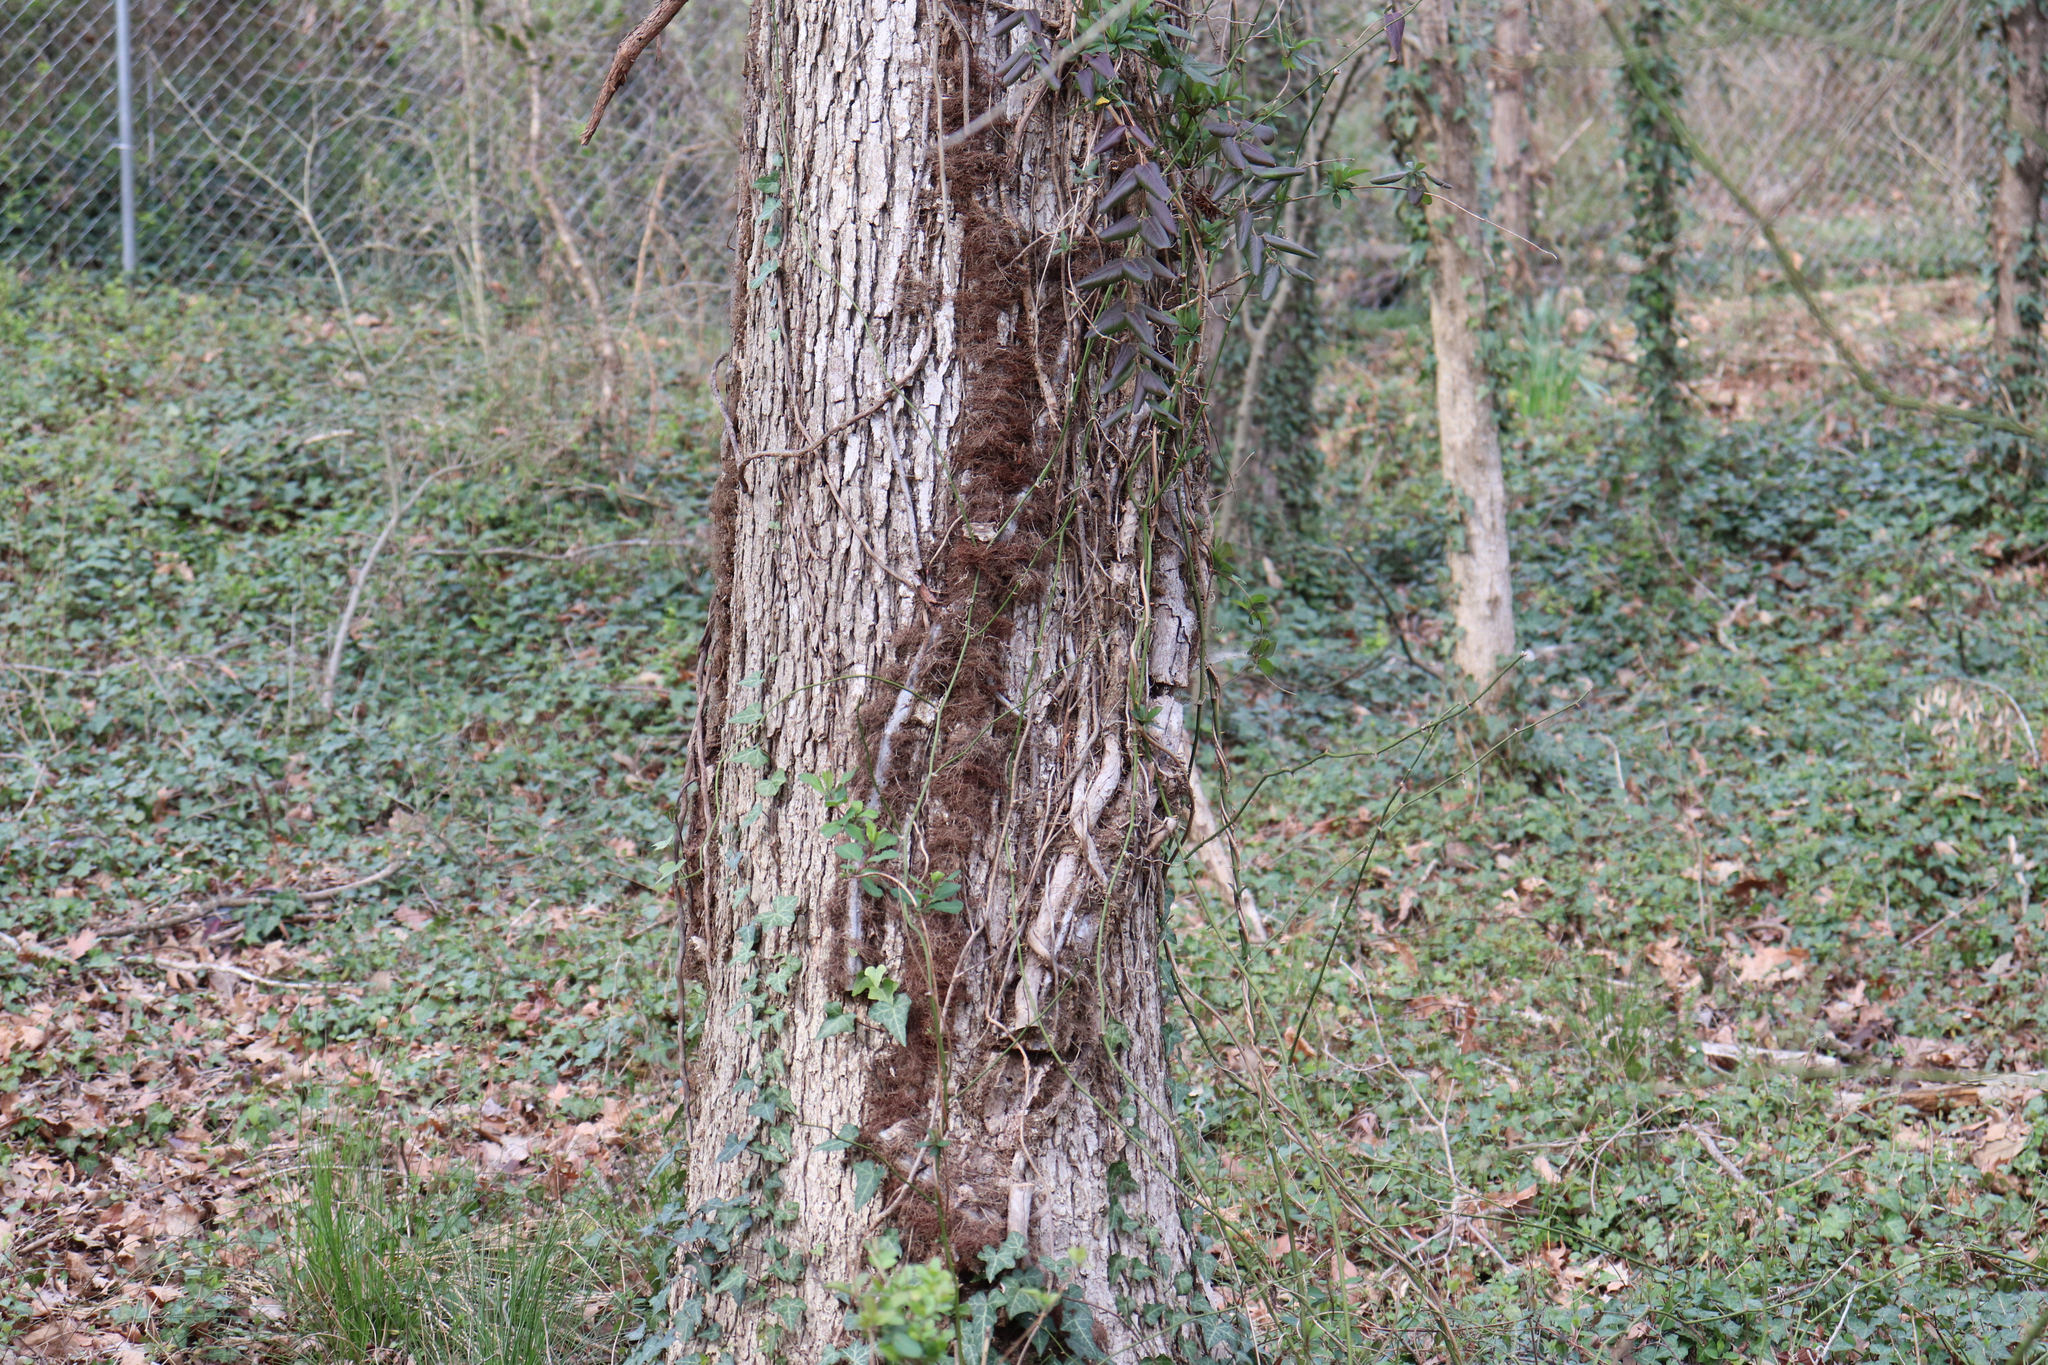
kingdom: Plantae
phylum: Tracheophyta
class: Magnoliopsida
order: Sapindales
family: Anacardiaceae
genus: Toxicodendron
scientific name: Toxicodendron radicans
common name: Poison ivy
